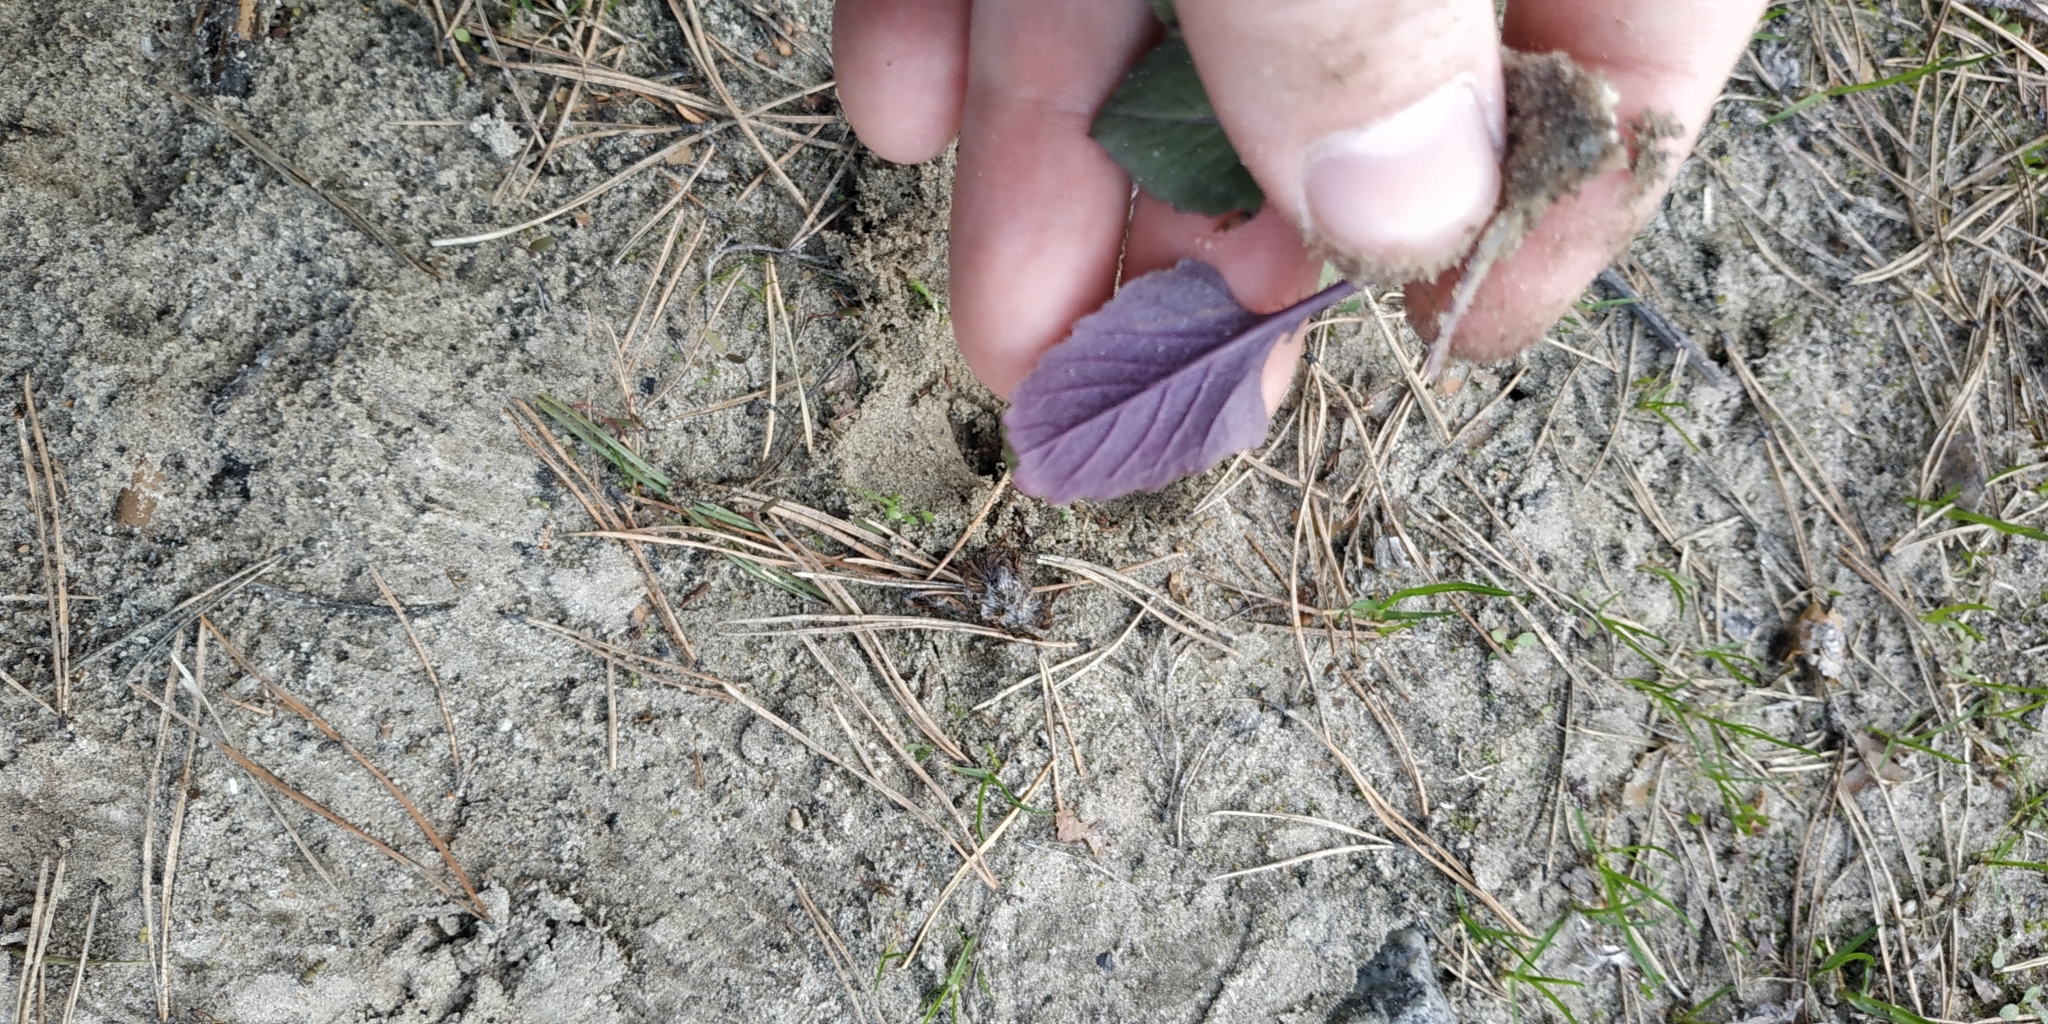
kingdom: Plantae
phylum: Tracheophyta
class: Magnoliopsida
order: Brassicales
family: Brassicaceae
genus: Catolobus
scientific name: Catolobus pendulus
